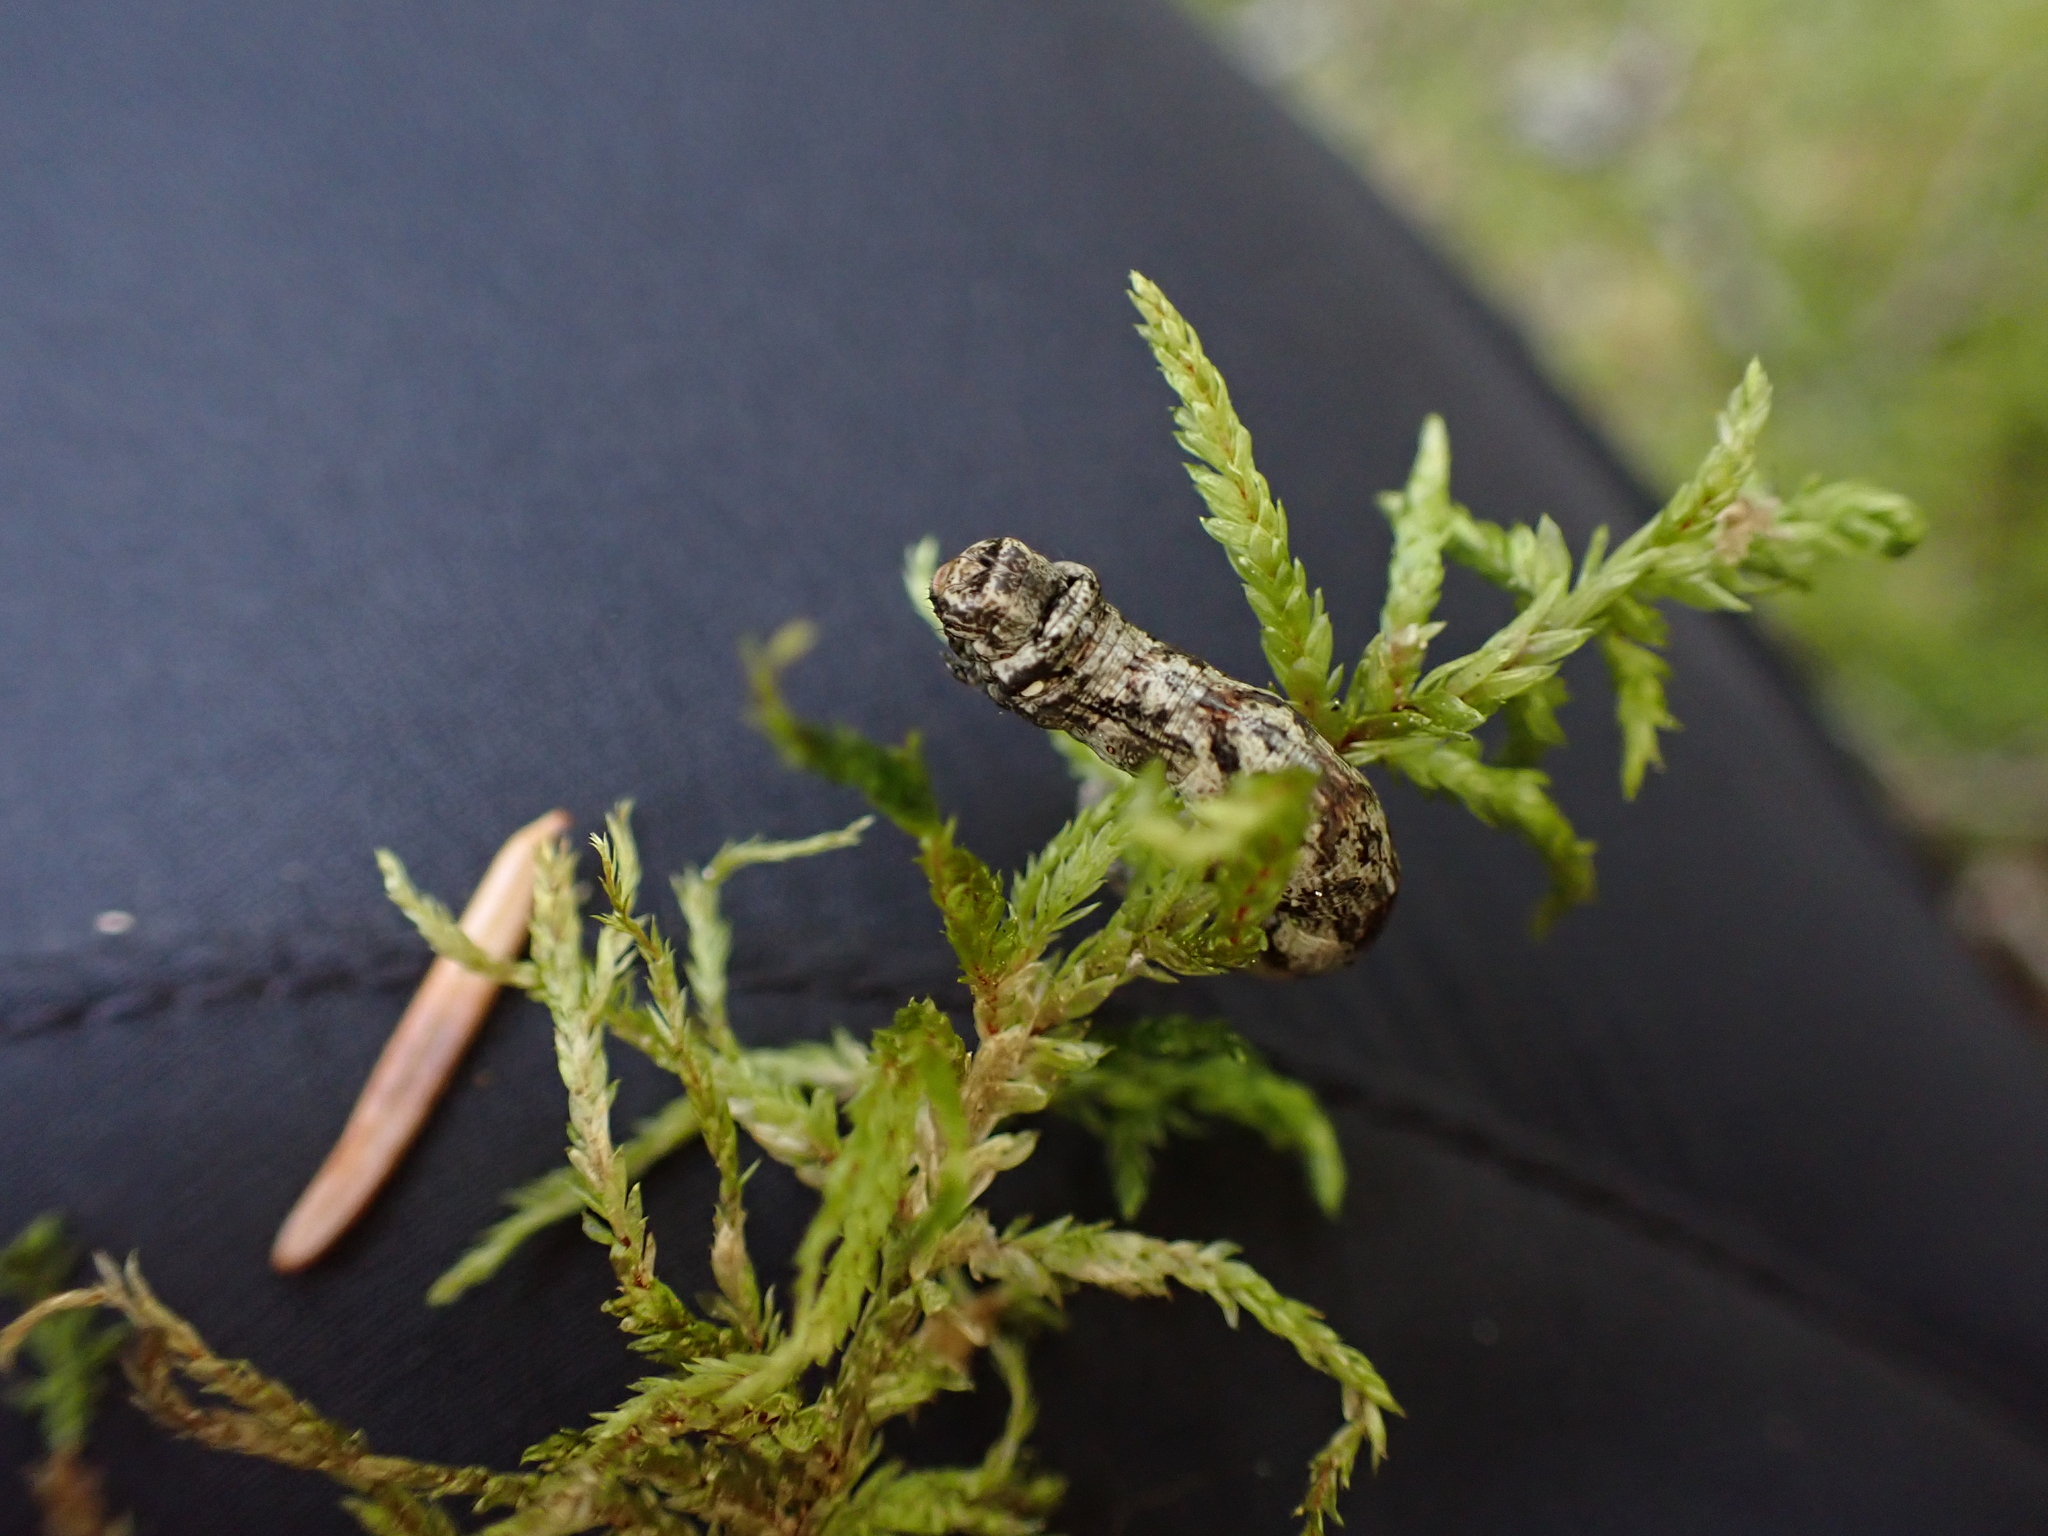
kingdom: Plantae
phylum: Bryophyta
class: Bryopsida
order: Hypnales
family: Hylocomiaceae
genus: Pleurozium
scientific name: Pleurozium schreberi
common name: Red-stemmed feather moss
